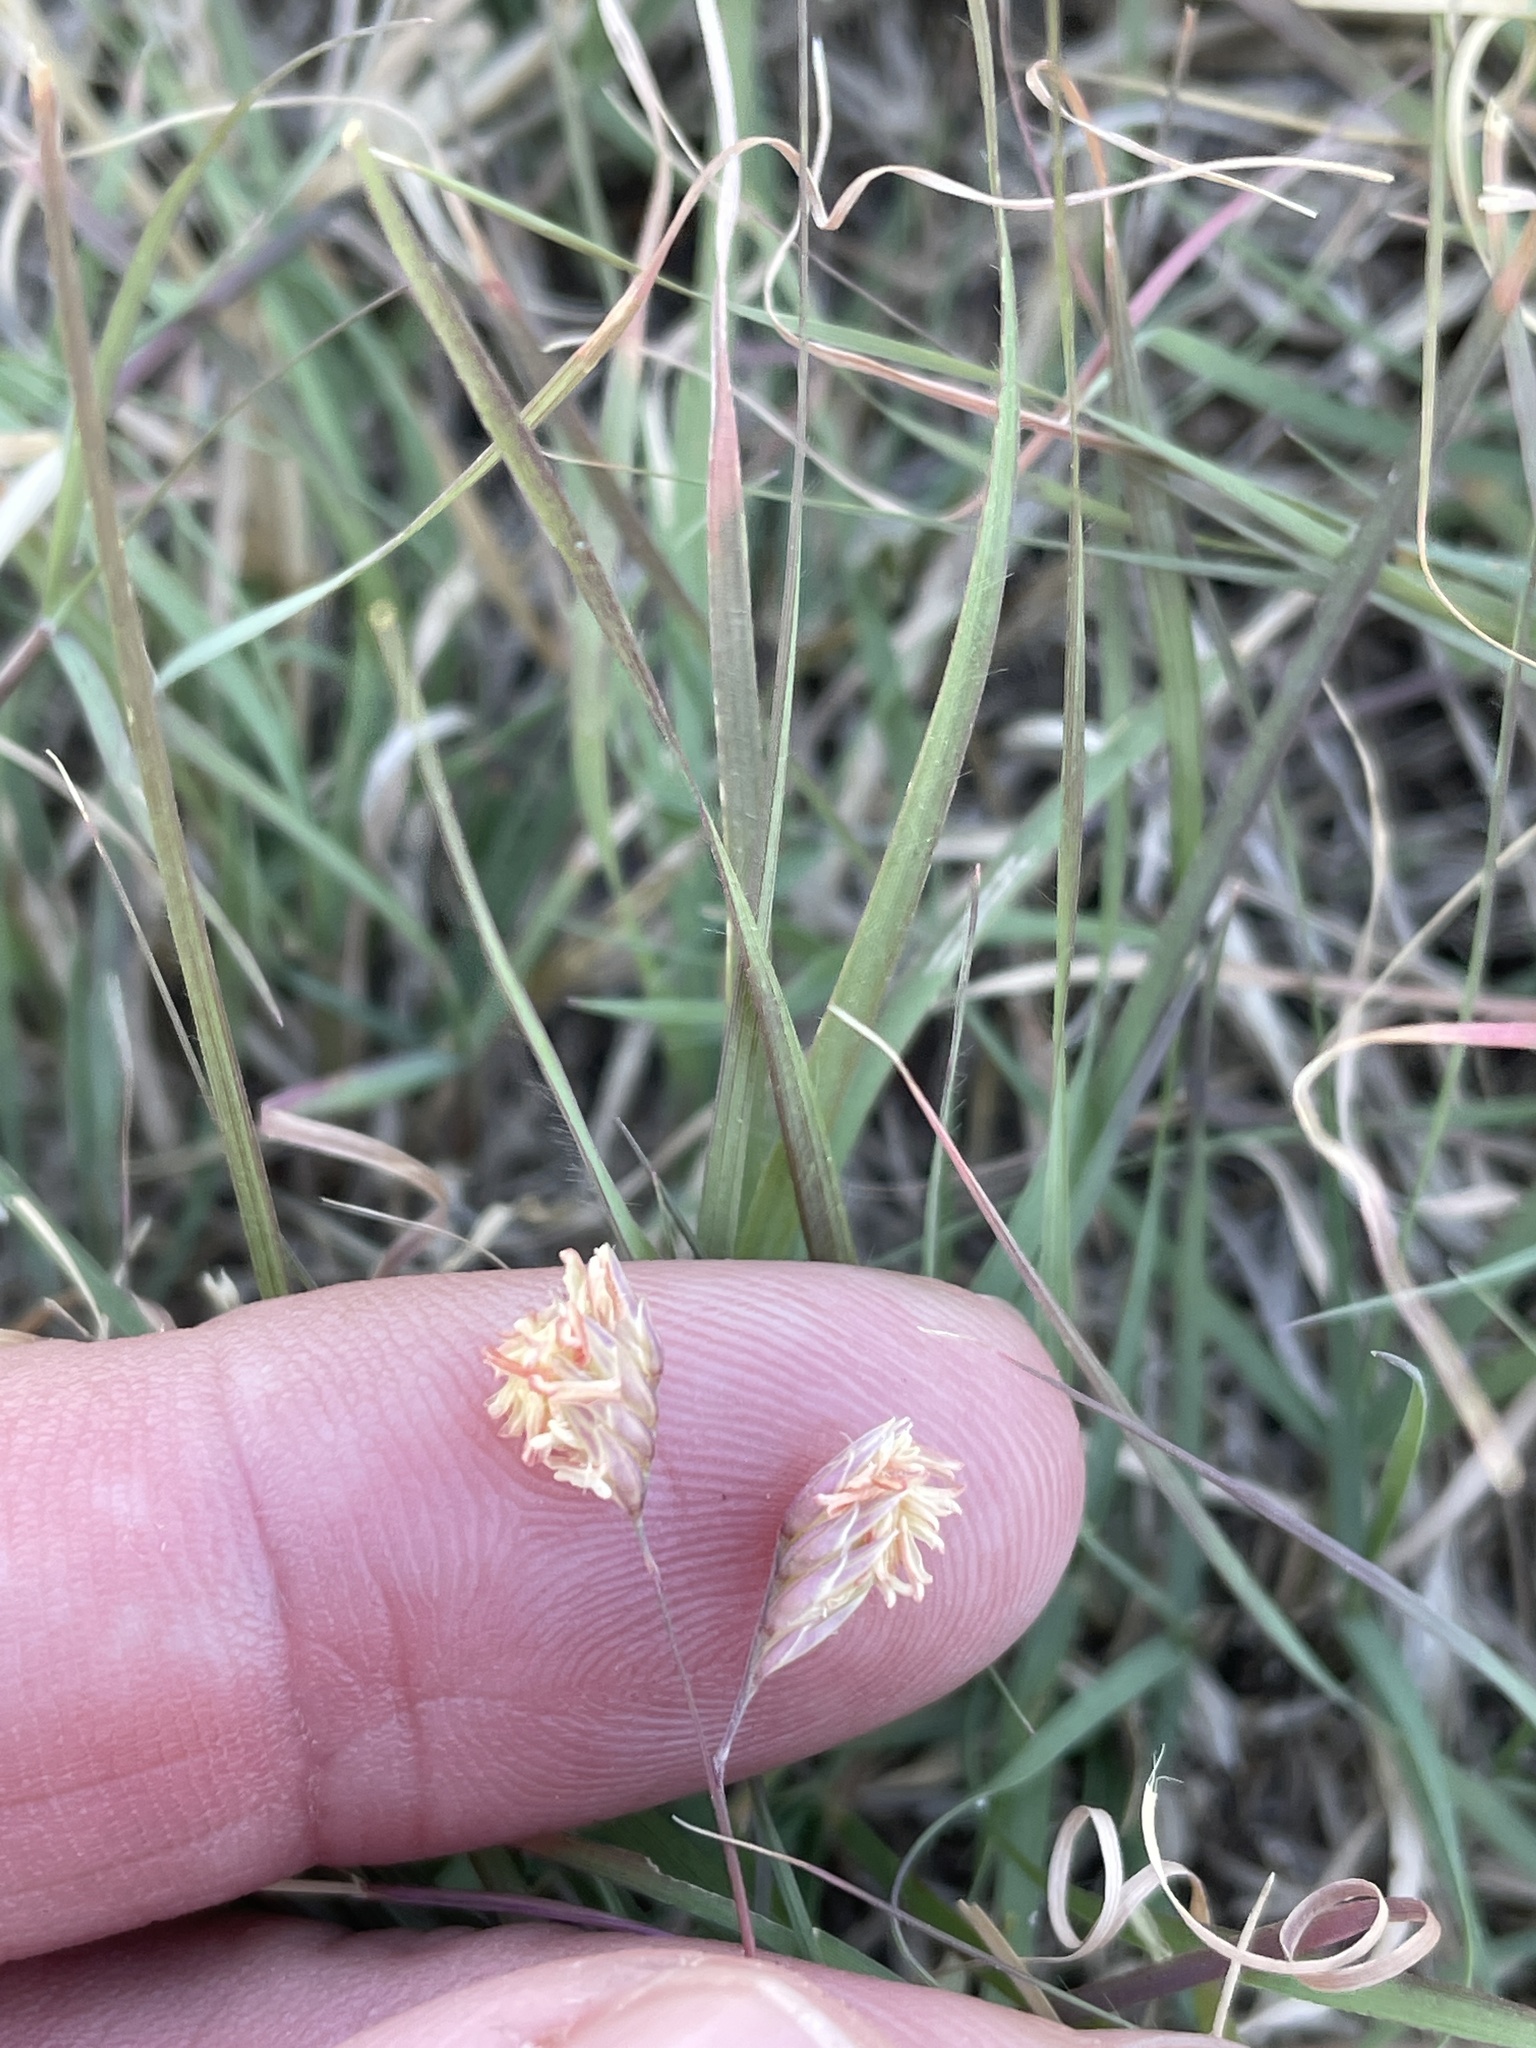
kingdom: Plantae
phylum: Tracheophyta
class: Liliopsida
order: Poales
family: Poaceae
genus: Bouteloua
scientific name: Bouteloua dactyloides
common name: Buffalo grass
